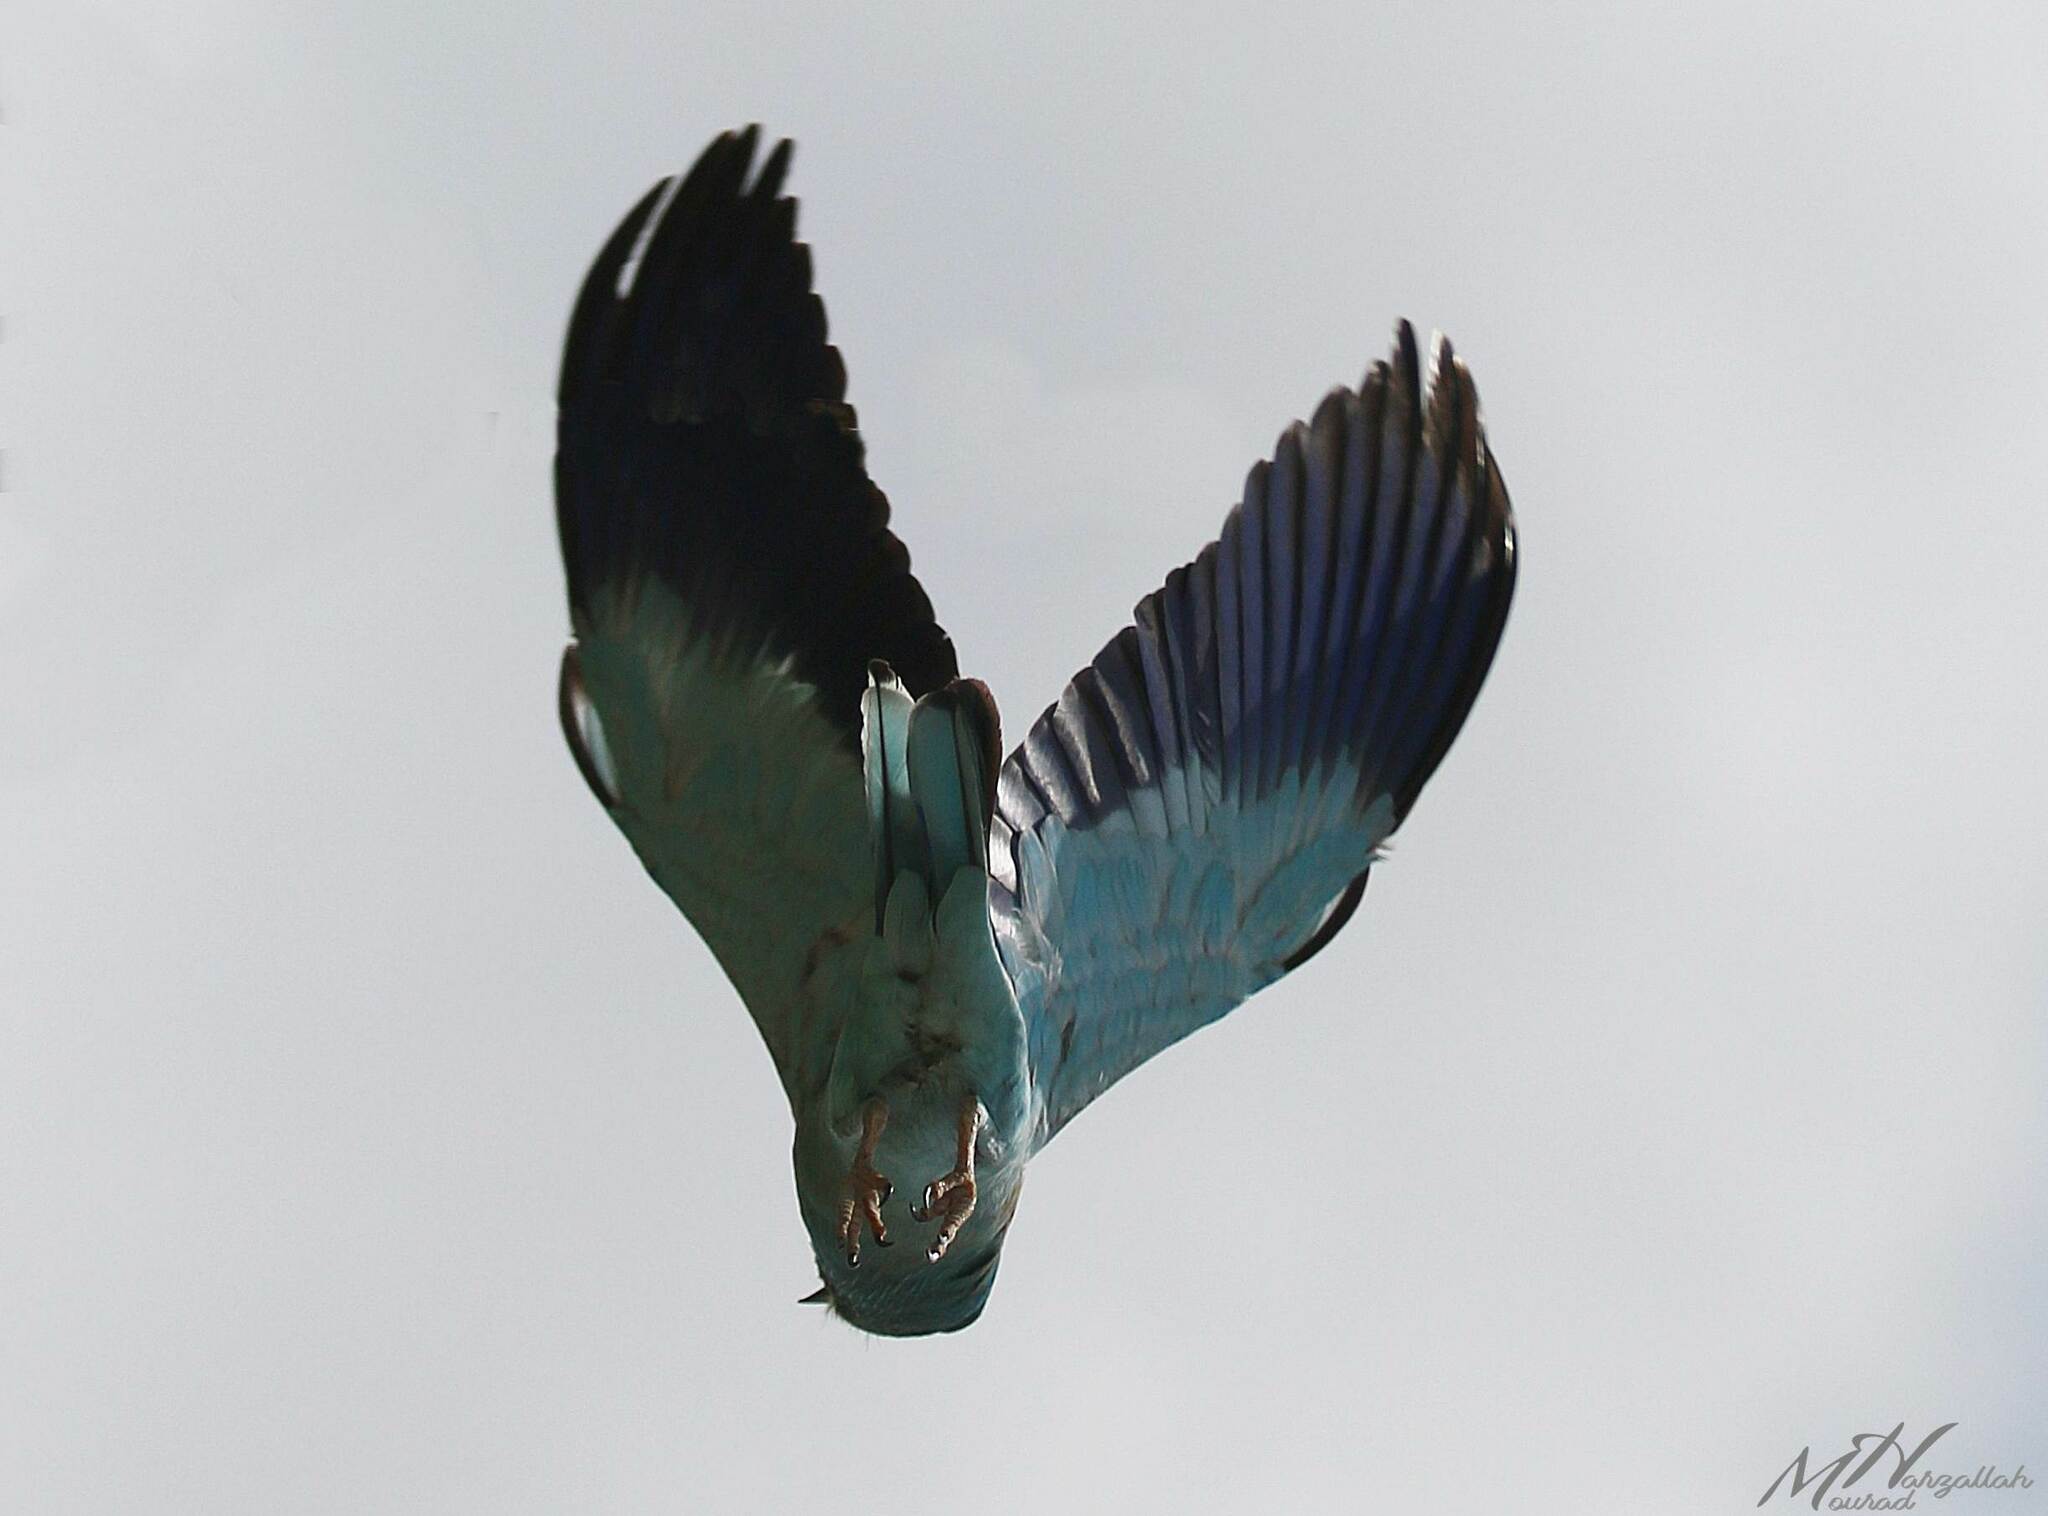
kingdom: Animalia
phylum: Chordata
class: Aves
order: Coraciiformes
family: Coraciidae
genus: Coracias
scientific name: Coracias garrulus
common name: European roller
